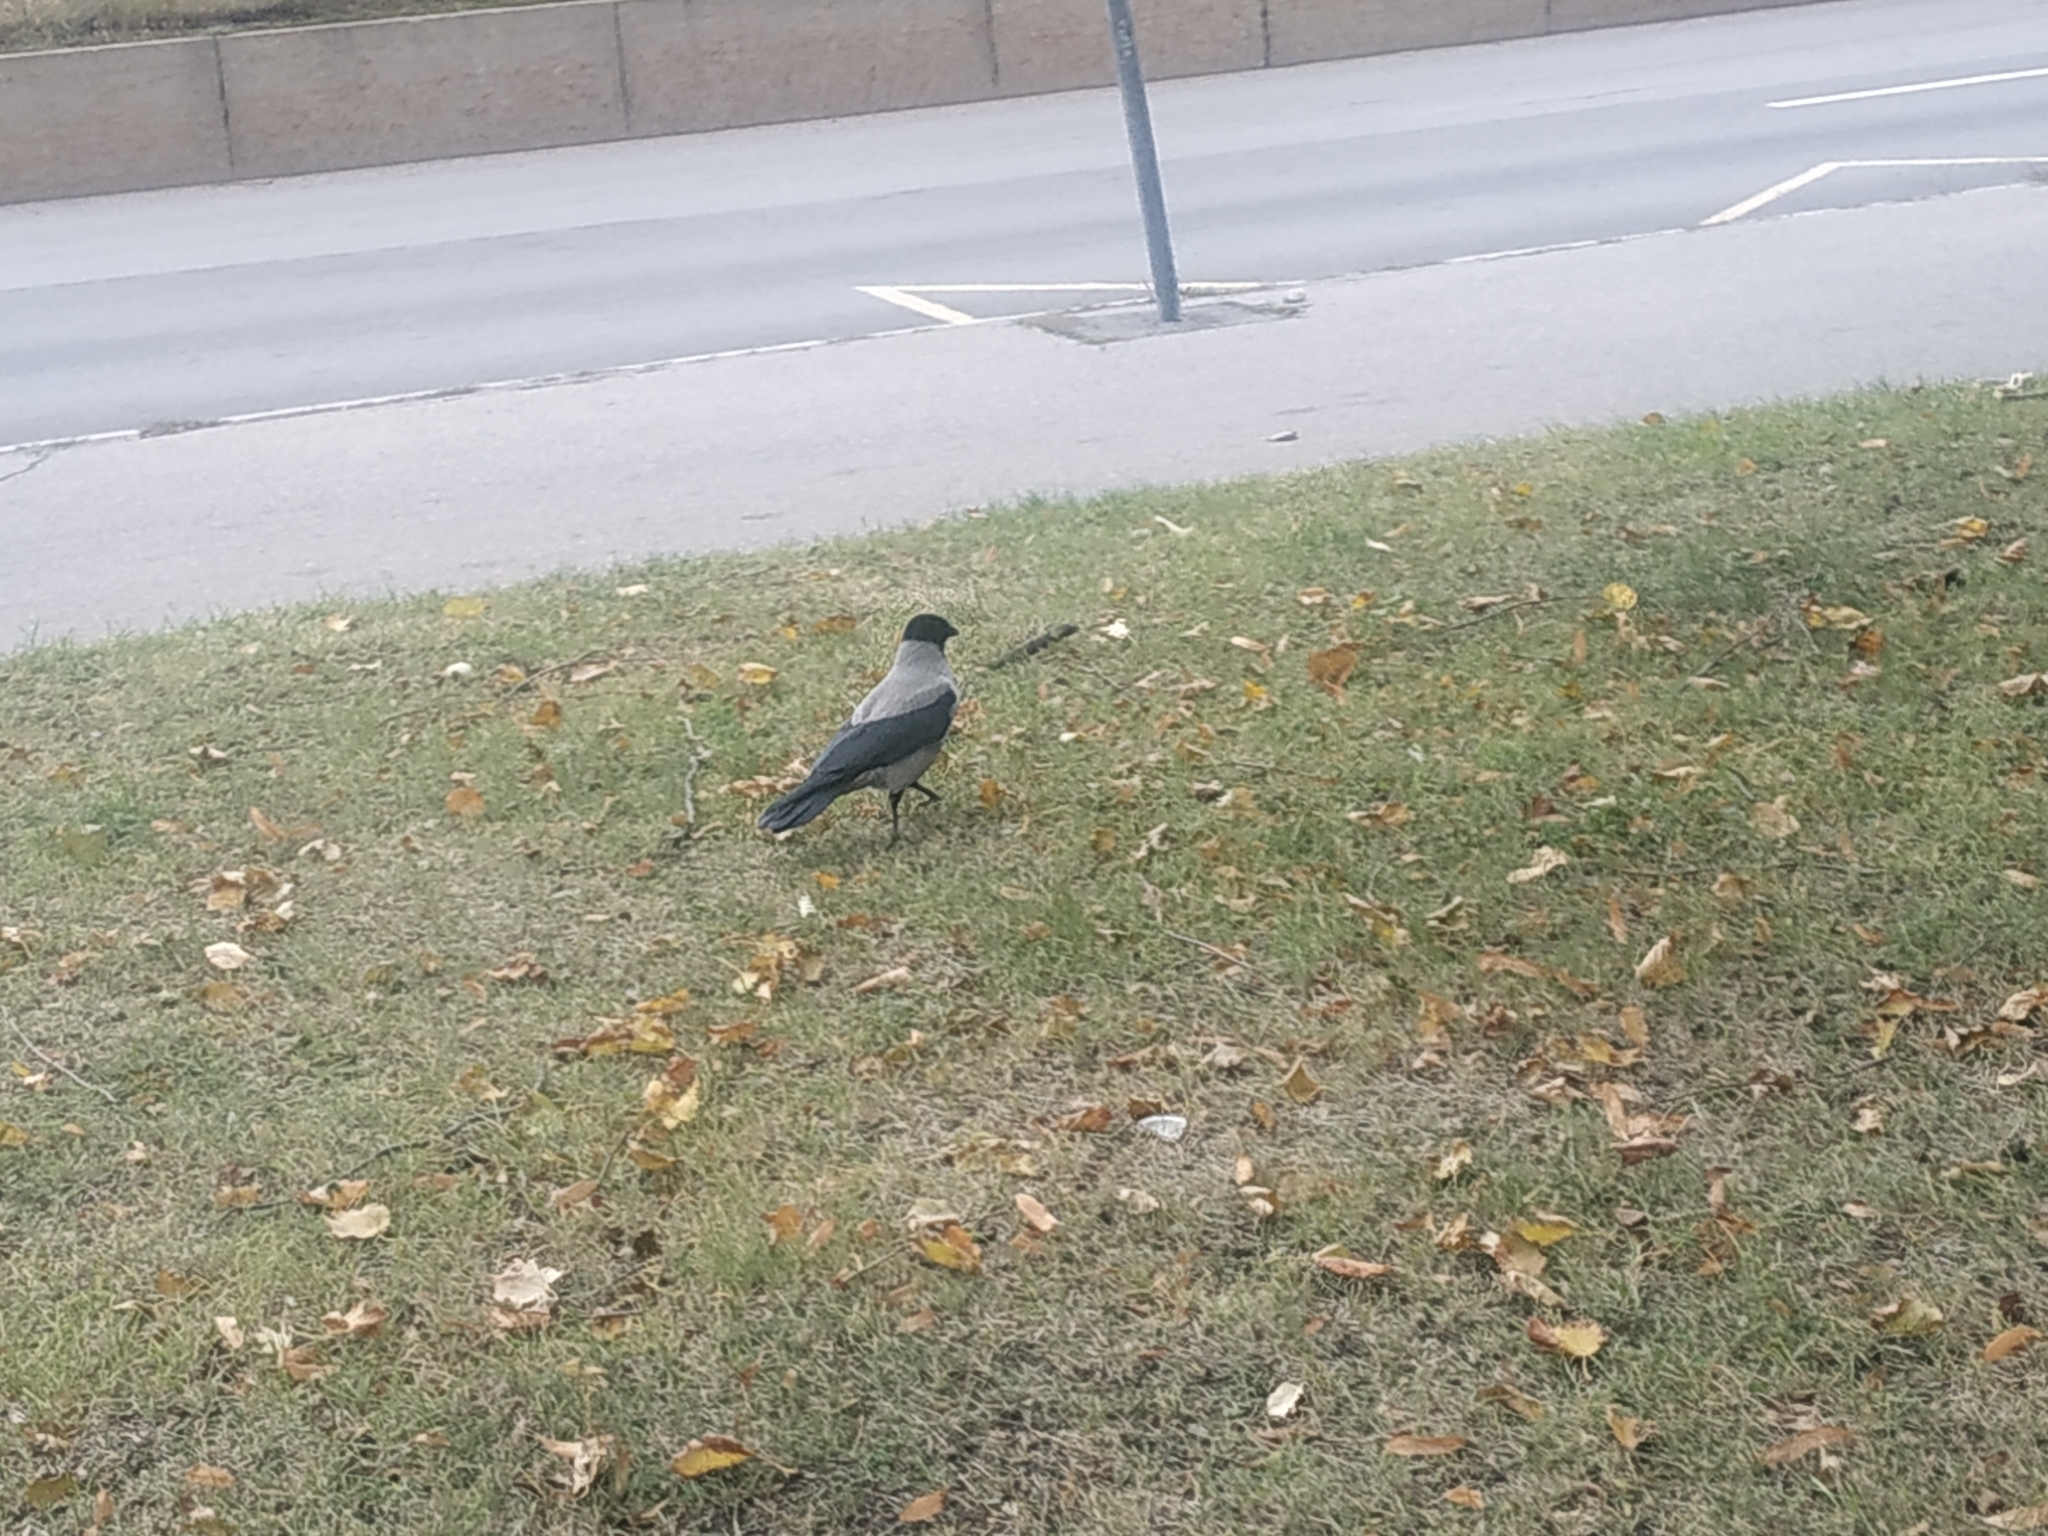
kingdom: Animalia
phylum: Chordata
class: Aves
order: Passeriformes
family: Corvidae
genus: Corvus
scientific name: Corvus cornix
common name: Hooded crow
